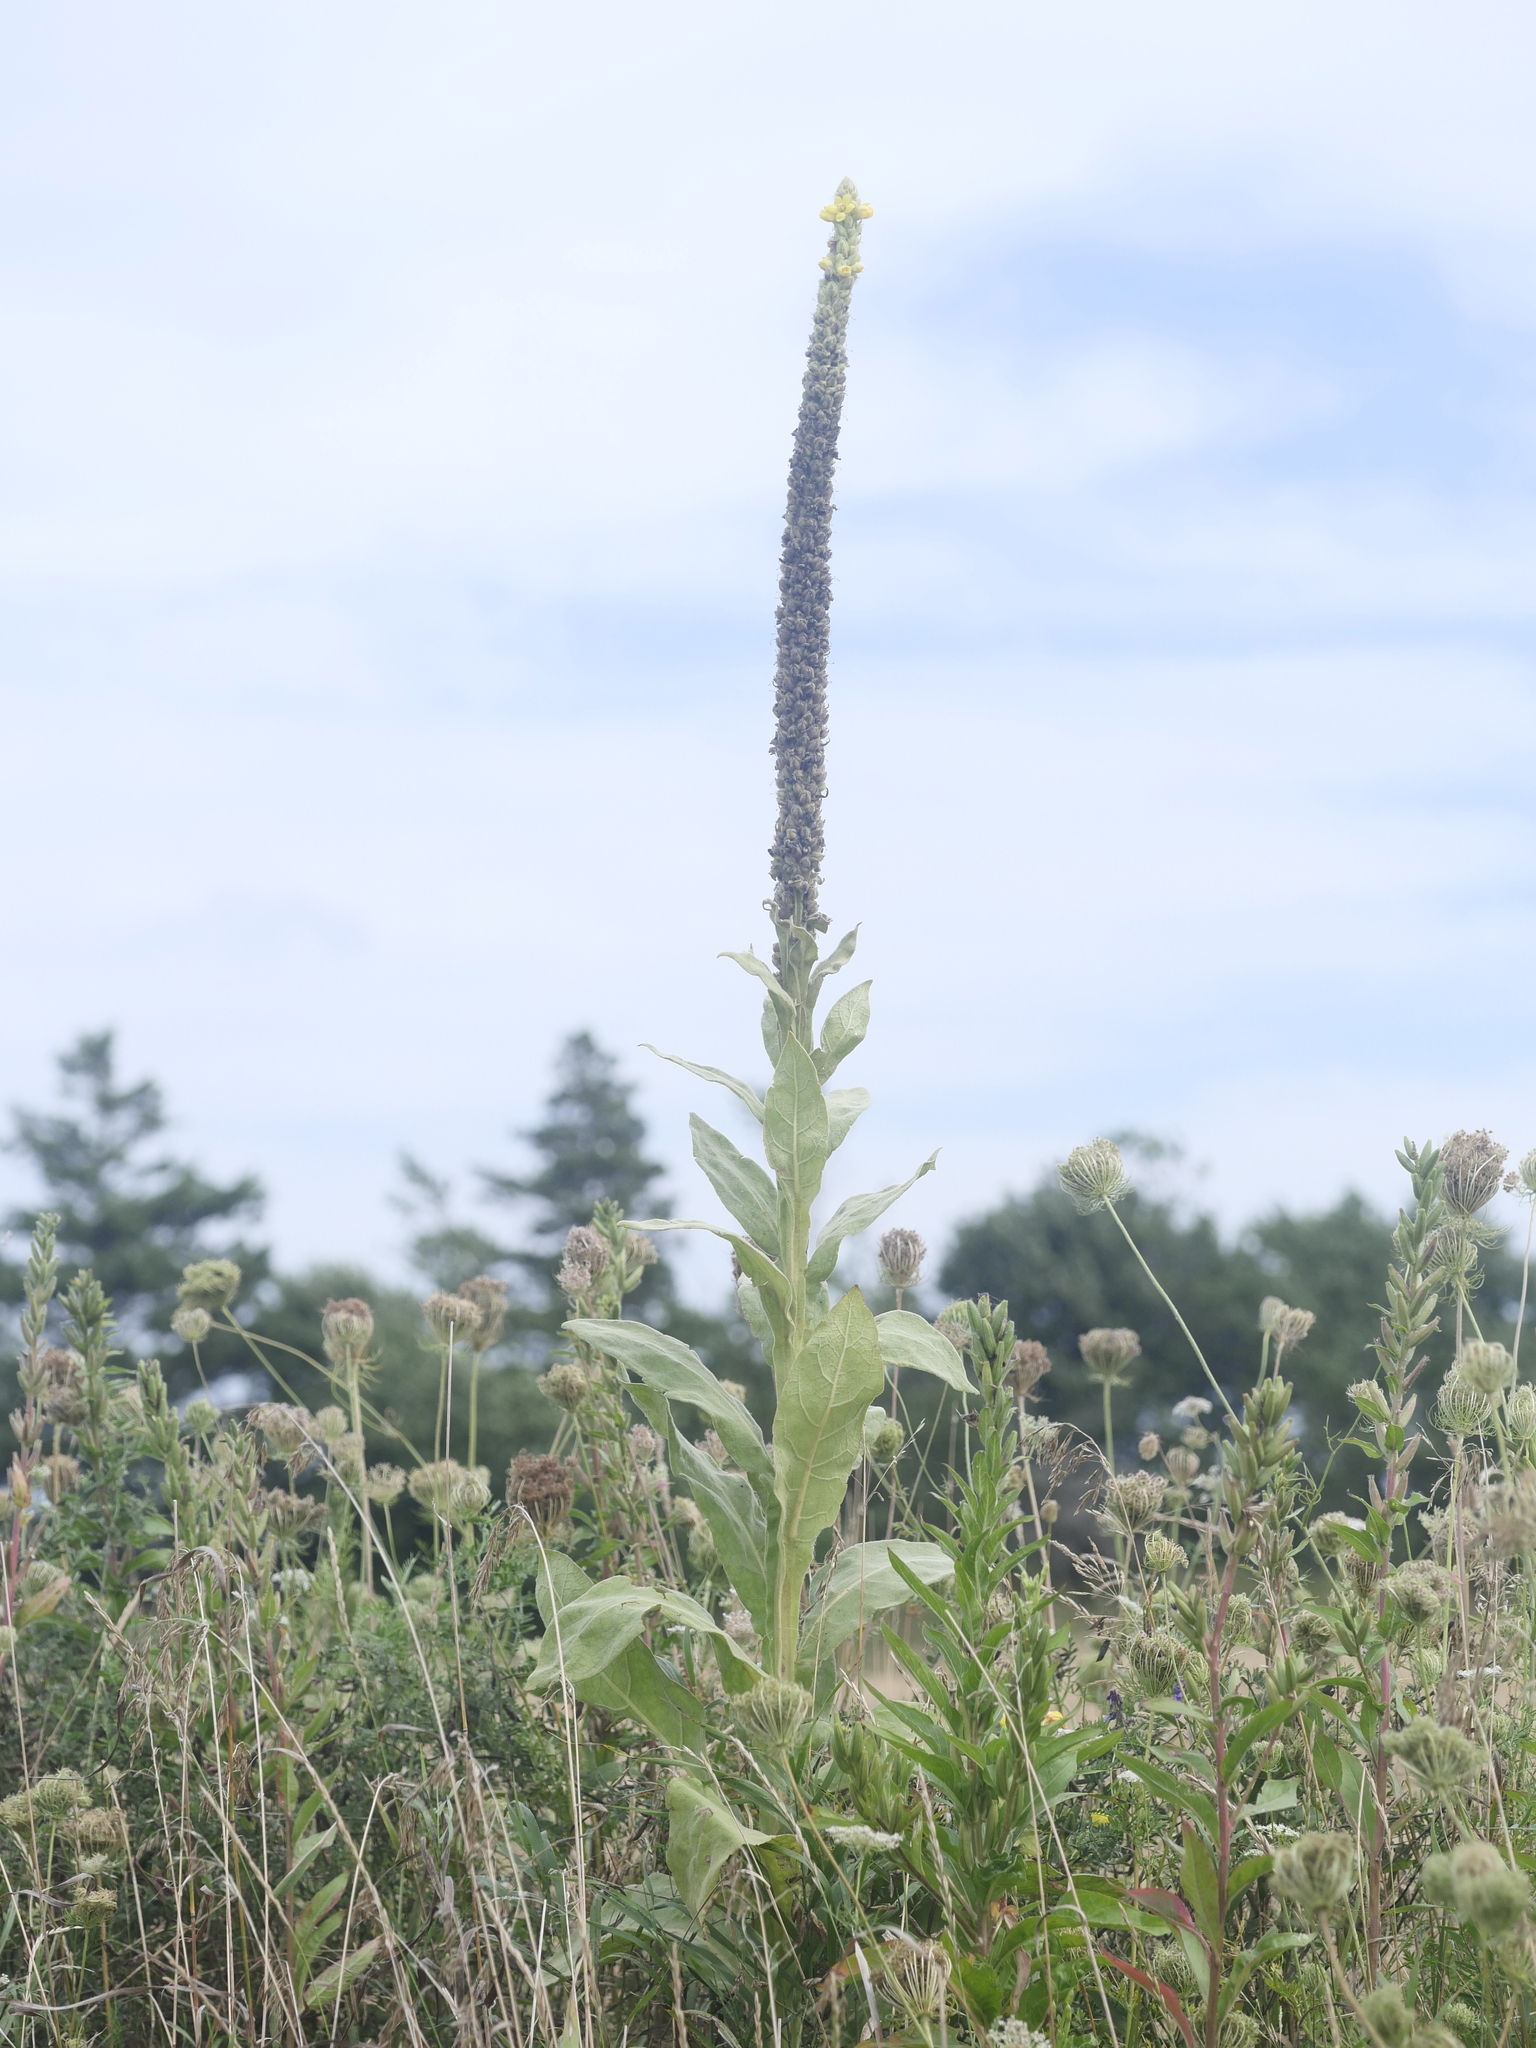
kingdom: Plantae
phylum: Tracheophyta
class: Magnoliopsida
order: Lamiales
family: Scrophulariaceae
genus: Verbascum
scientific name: Verbascum thapsus
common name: Common mullein
